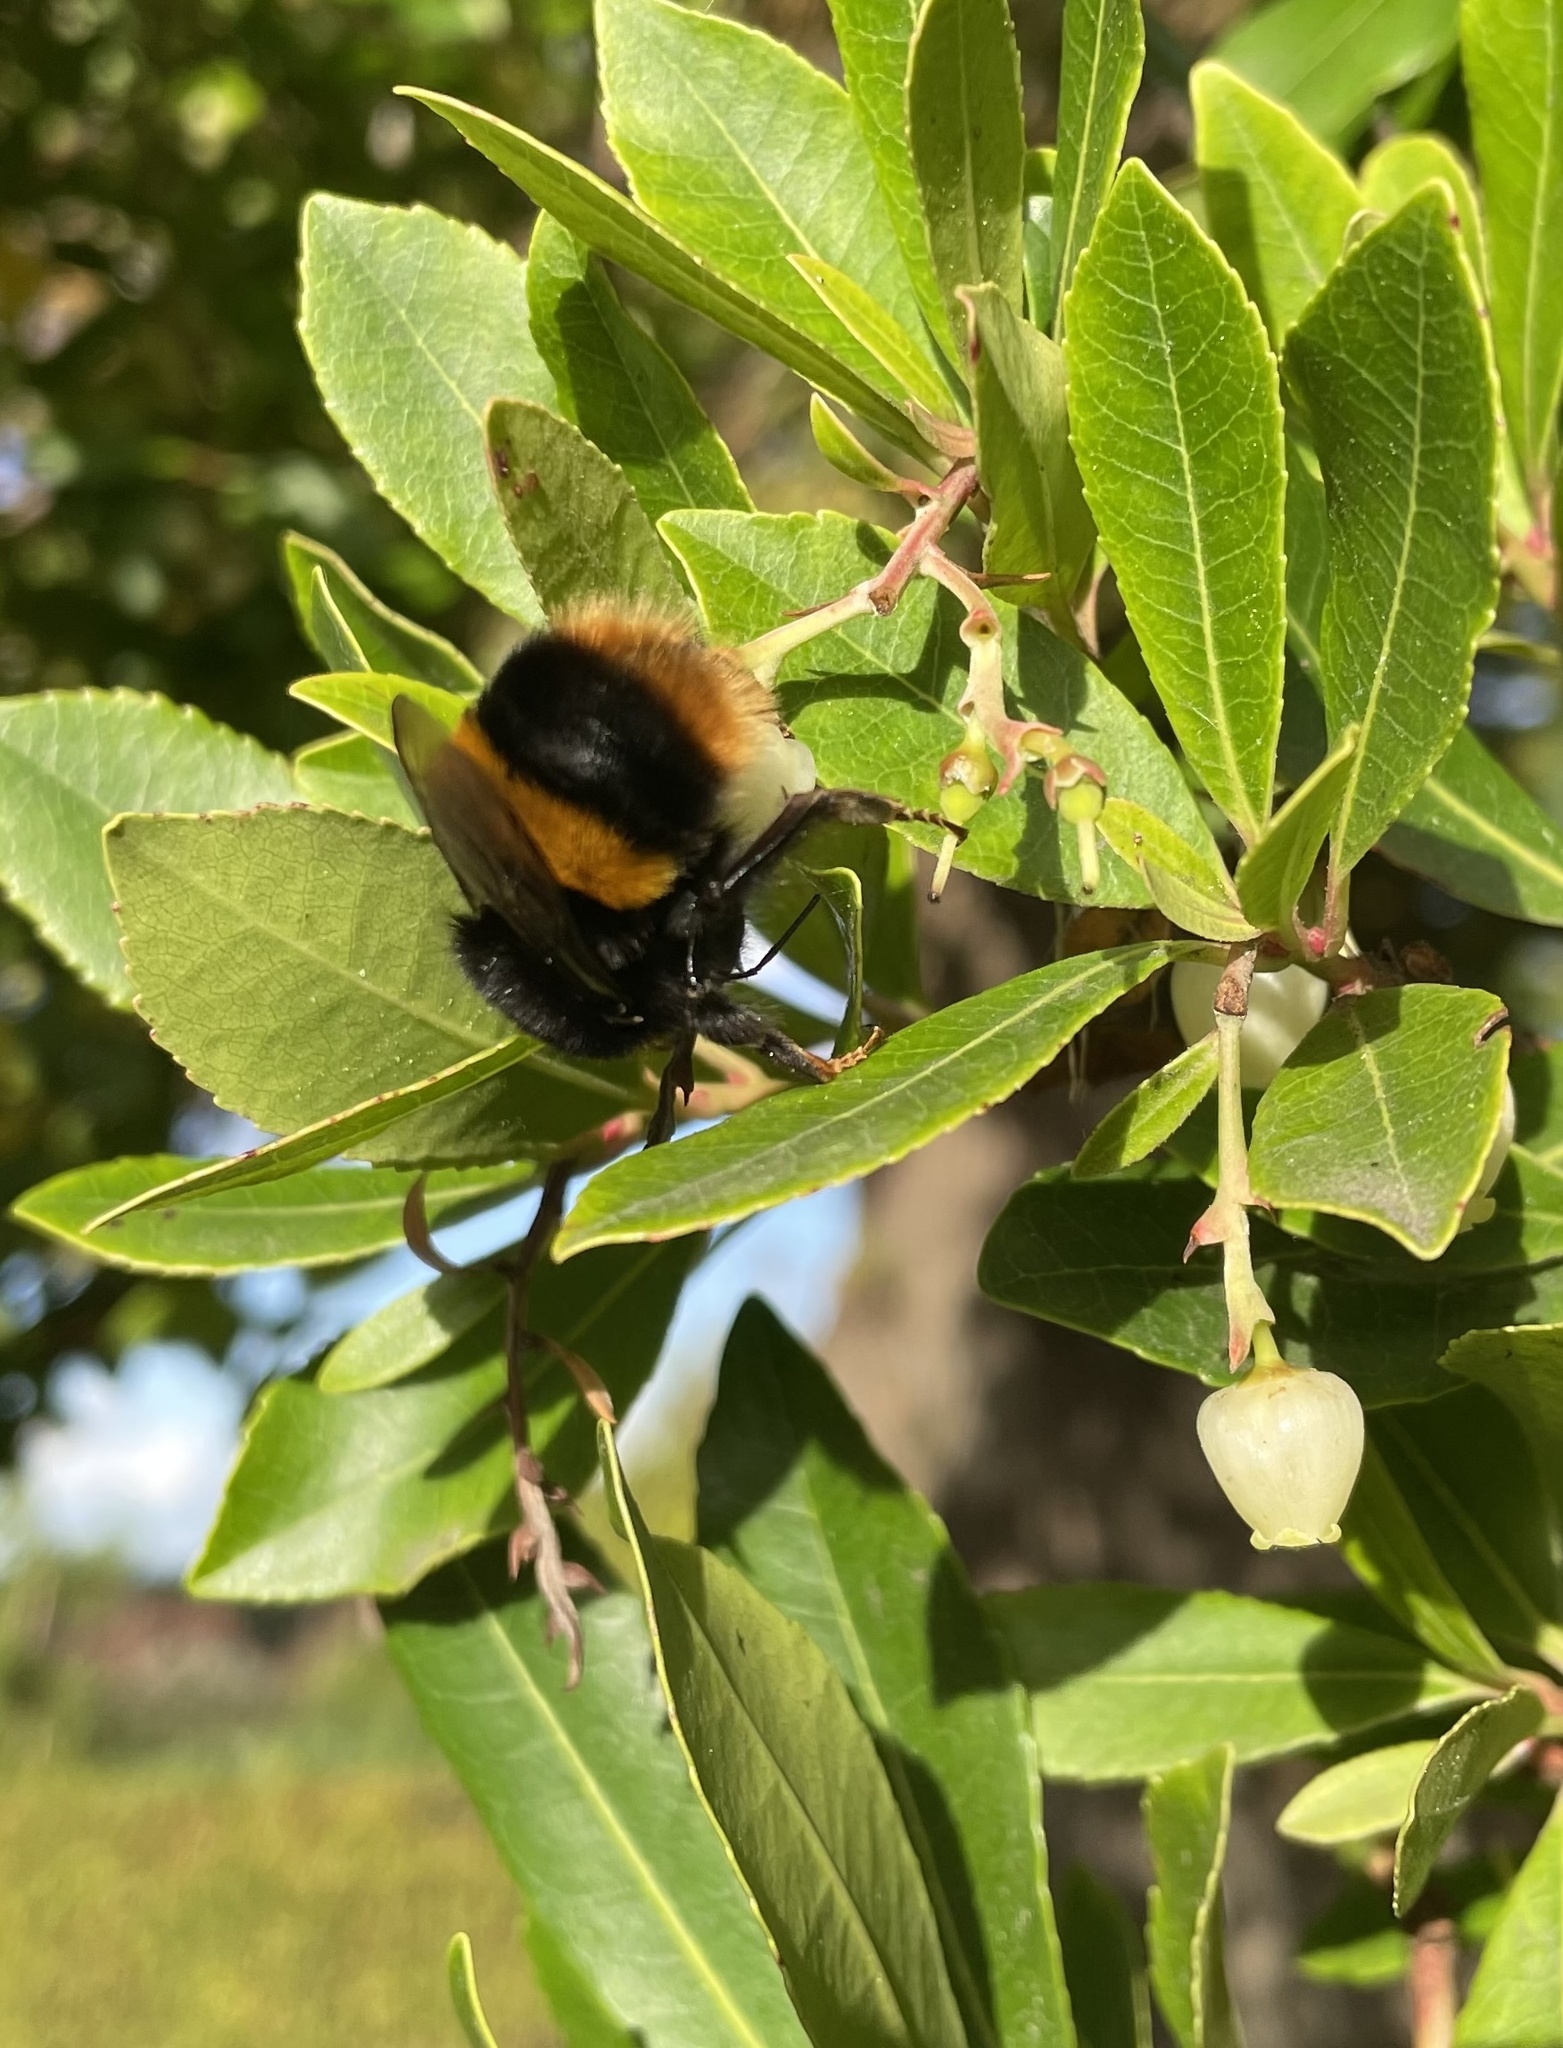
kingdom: Animalia
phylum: Arthropoda
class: Insecta
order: Hymenoptera
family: Apidae
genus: Bombus
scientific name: Bombus terrestris
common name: Buff-tailed bumblebee
